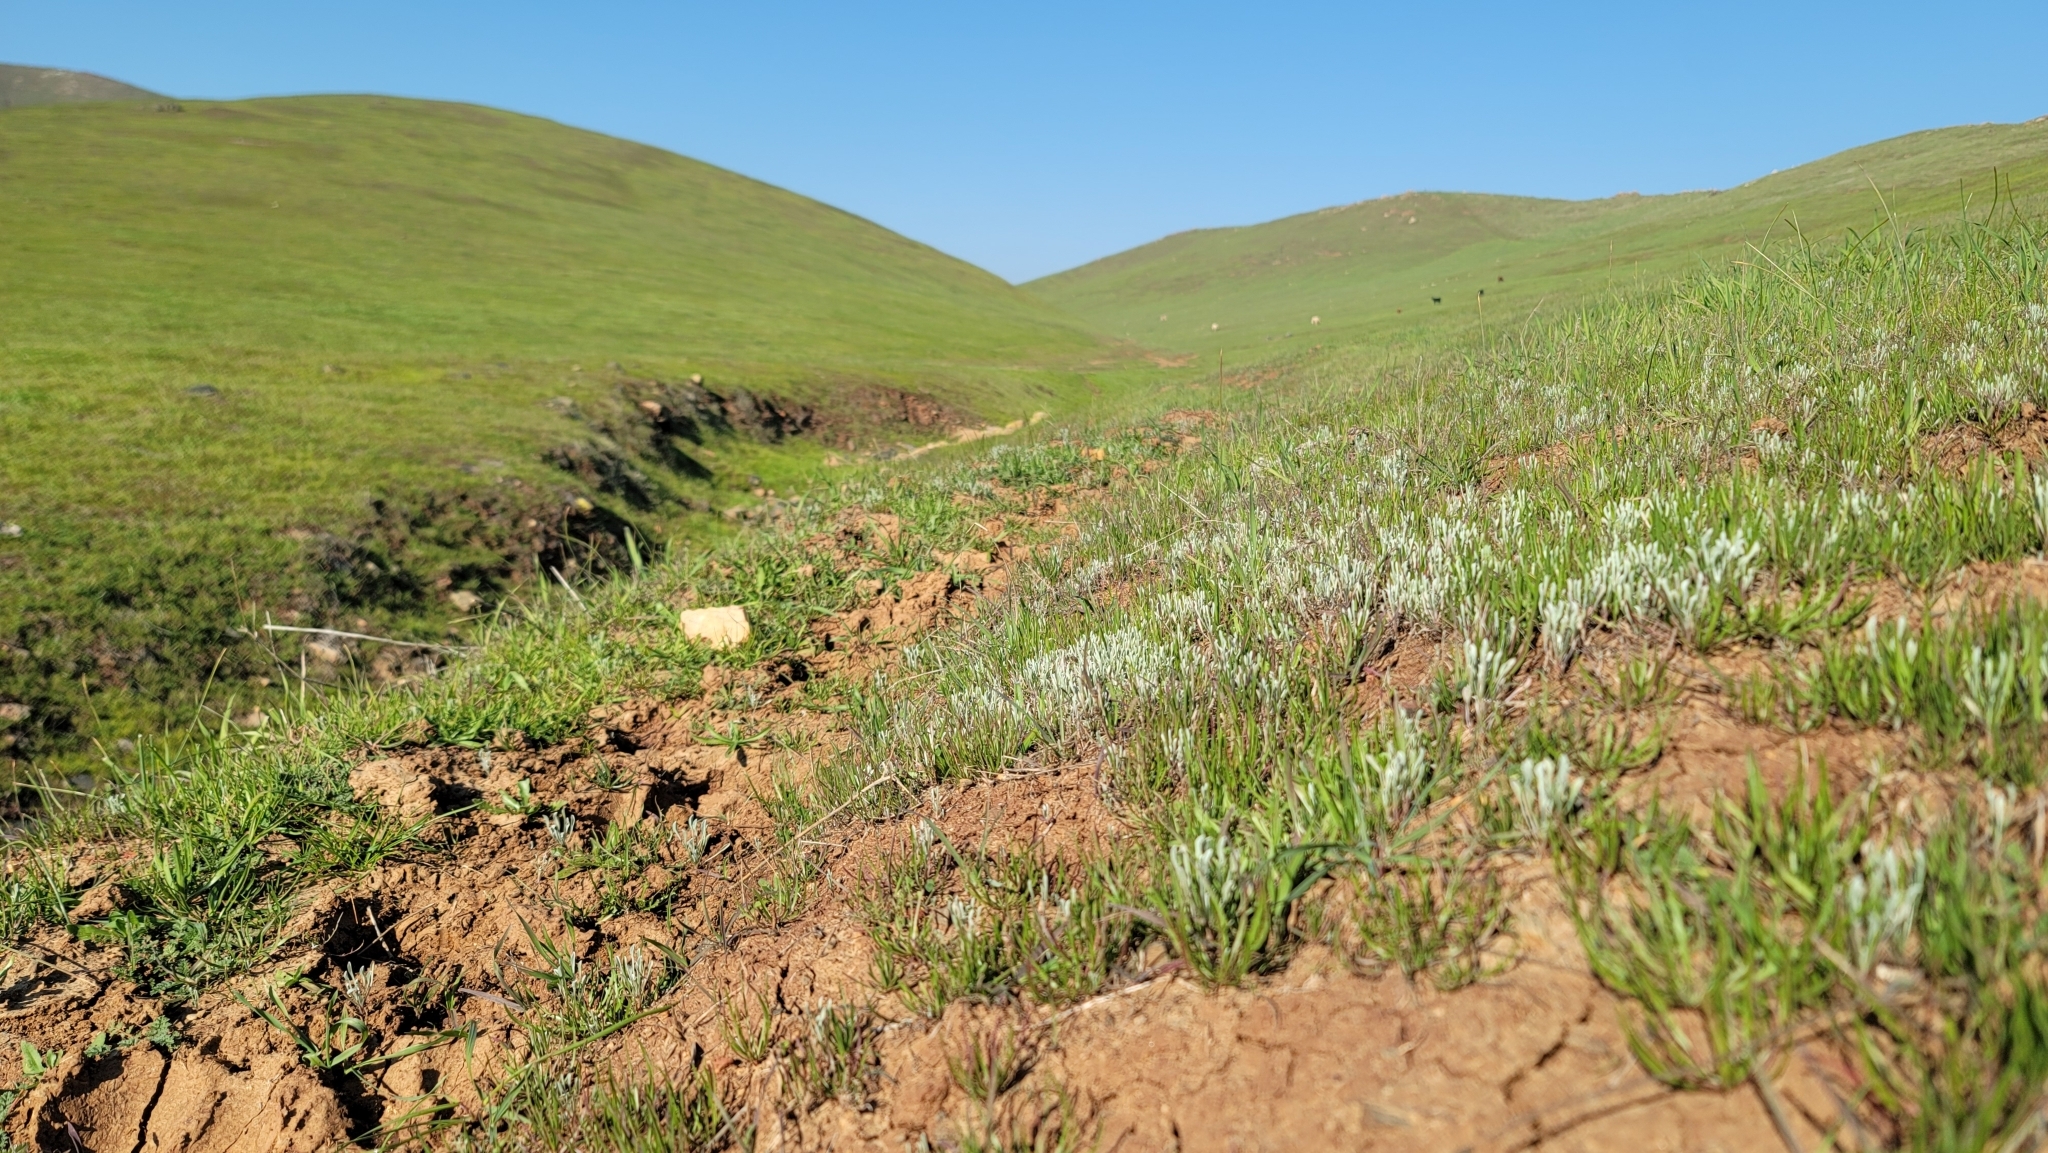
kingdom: Plantae
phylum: Tracheophyta
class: Magnoliopsida
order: Asterales
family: Asteraceae
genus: Hesperevax
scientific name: Hesperevax caulescens
